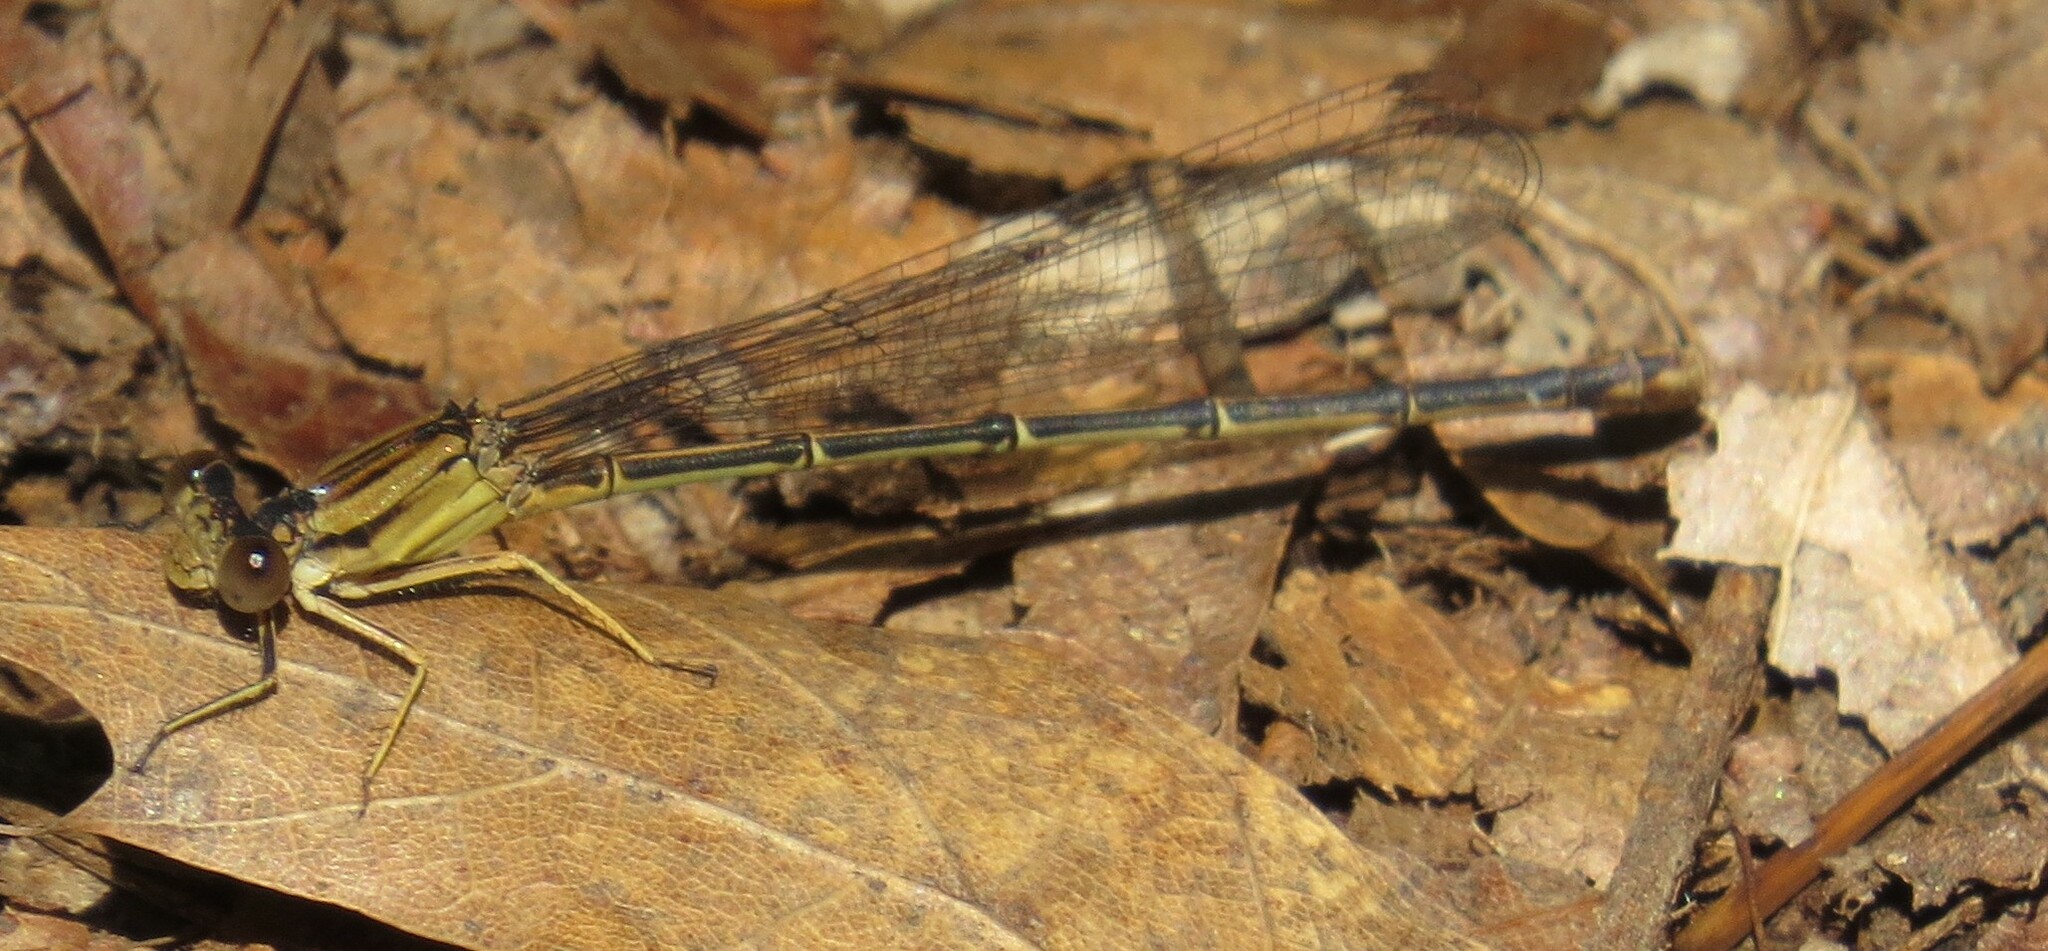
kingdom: Animalia
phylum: Arthropoda
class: Insecta
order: Odonata
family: Coenagrionidae
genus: Argia
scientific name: Argia moesta
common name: Powdered dancer
